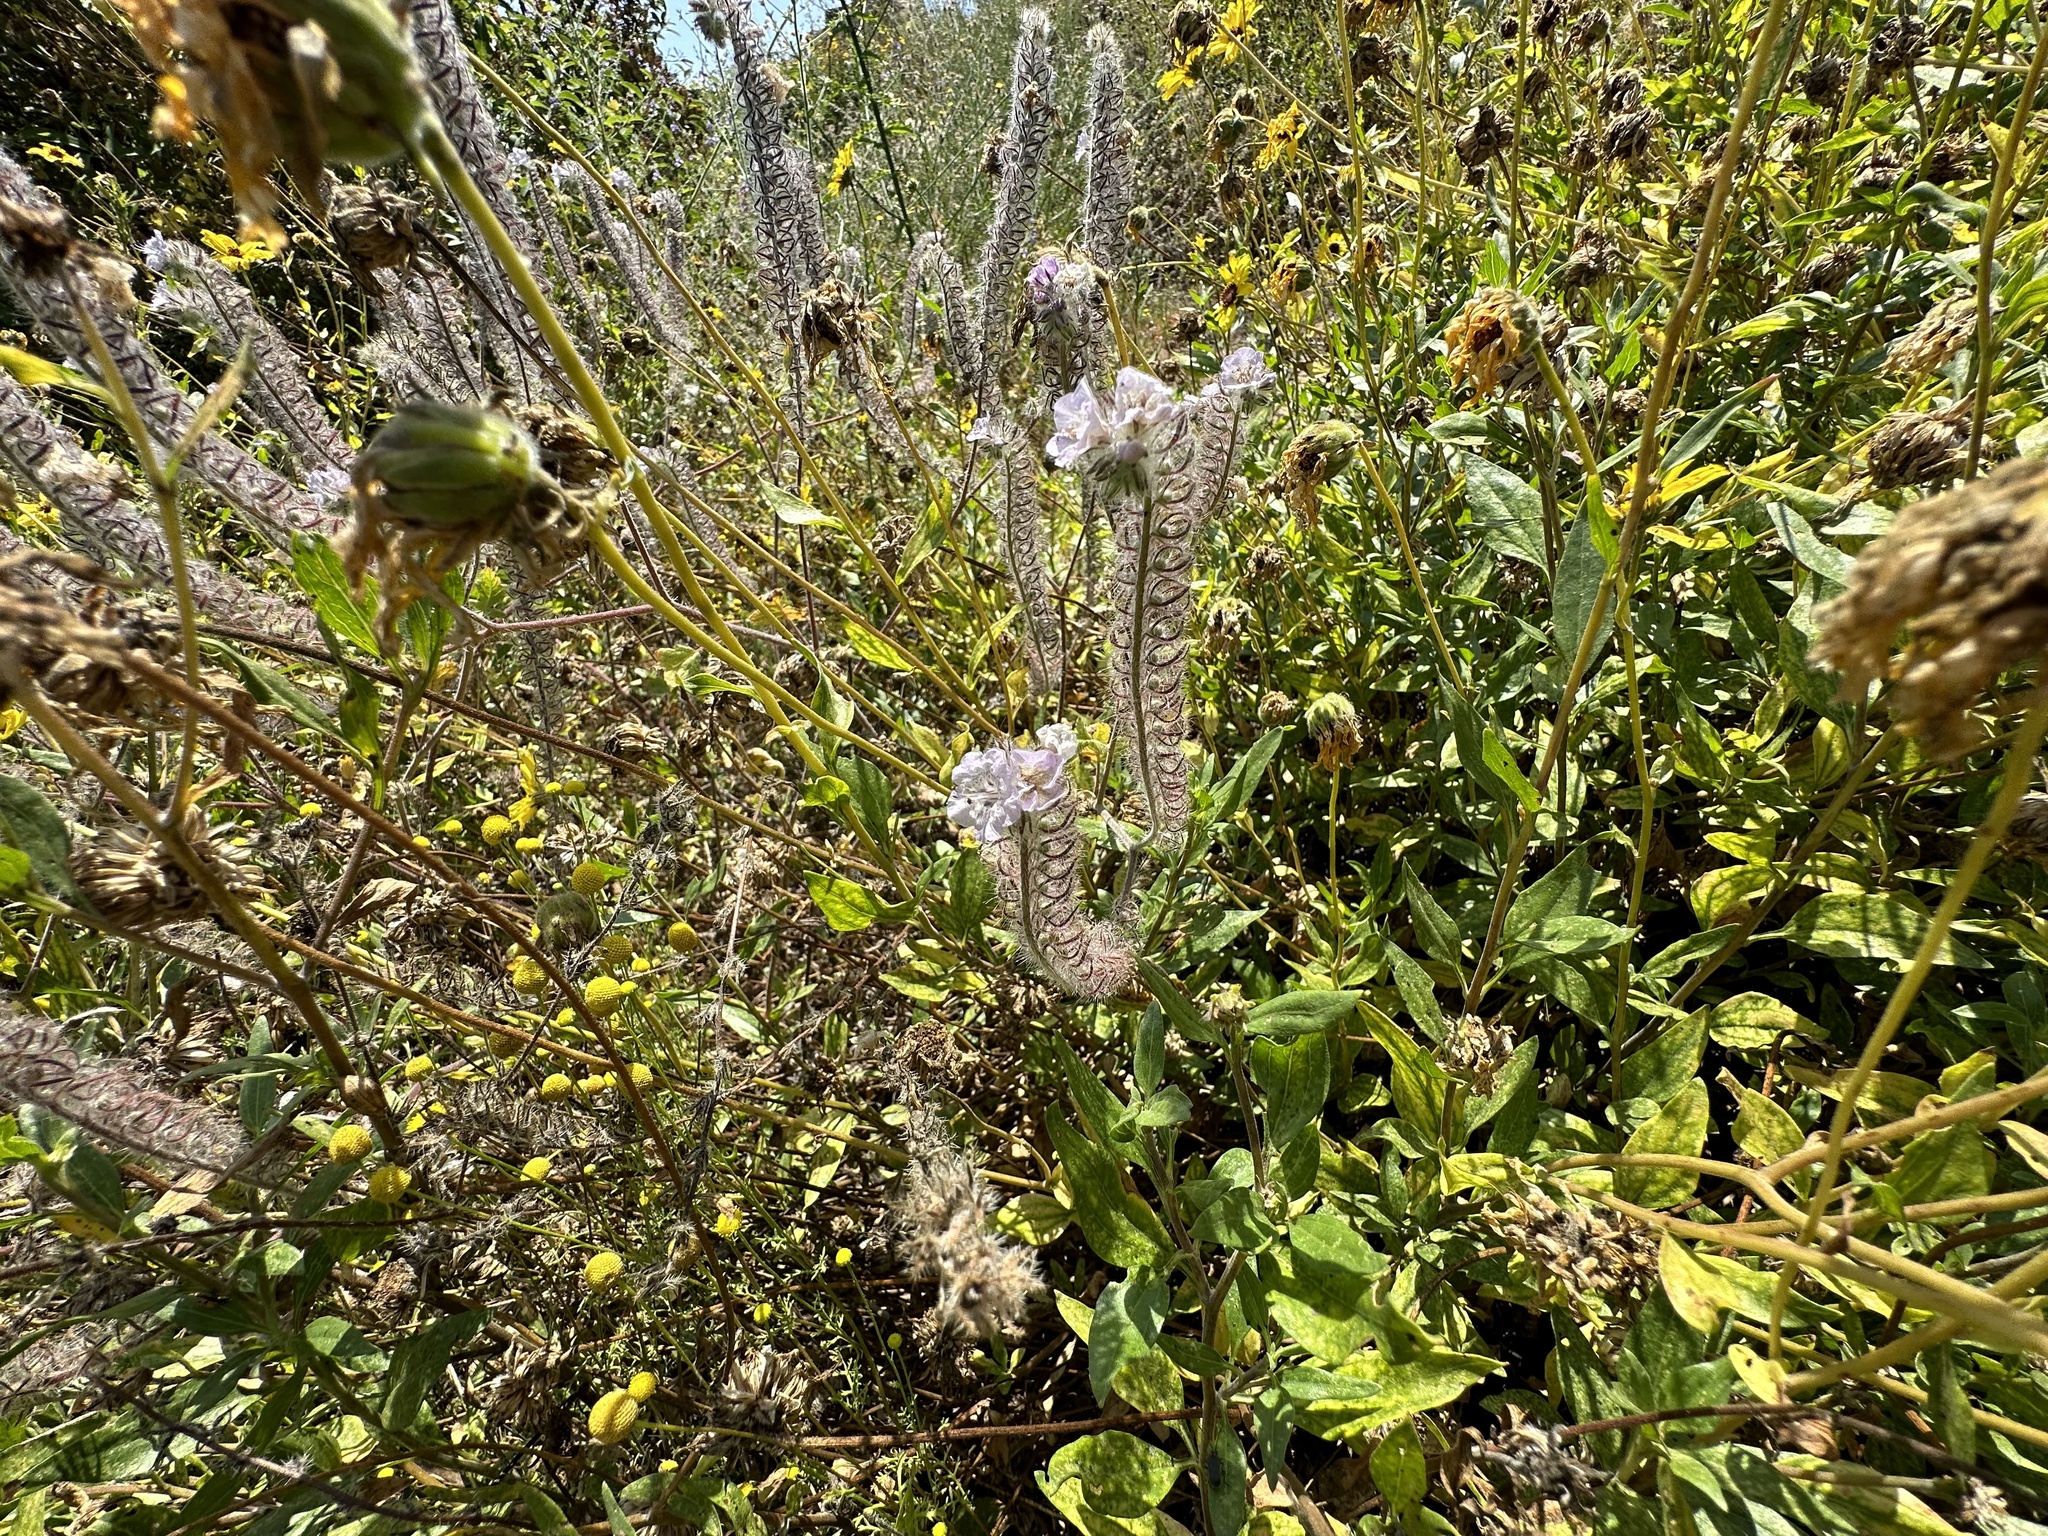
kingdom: Plantae
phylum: Tracheophyta
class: Magnoliopsida
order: Boraginales
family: Hydrophyllaceae
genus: Phacelia
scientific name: Phacelia cicutaria
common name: Caterpillar phacelia
